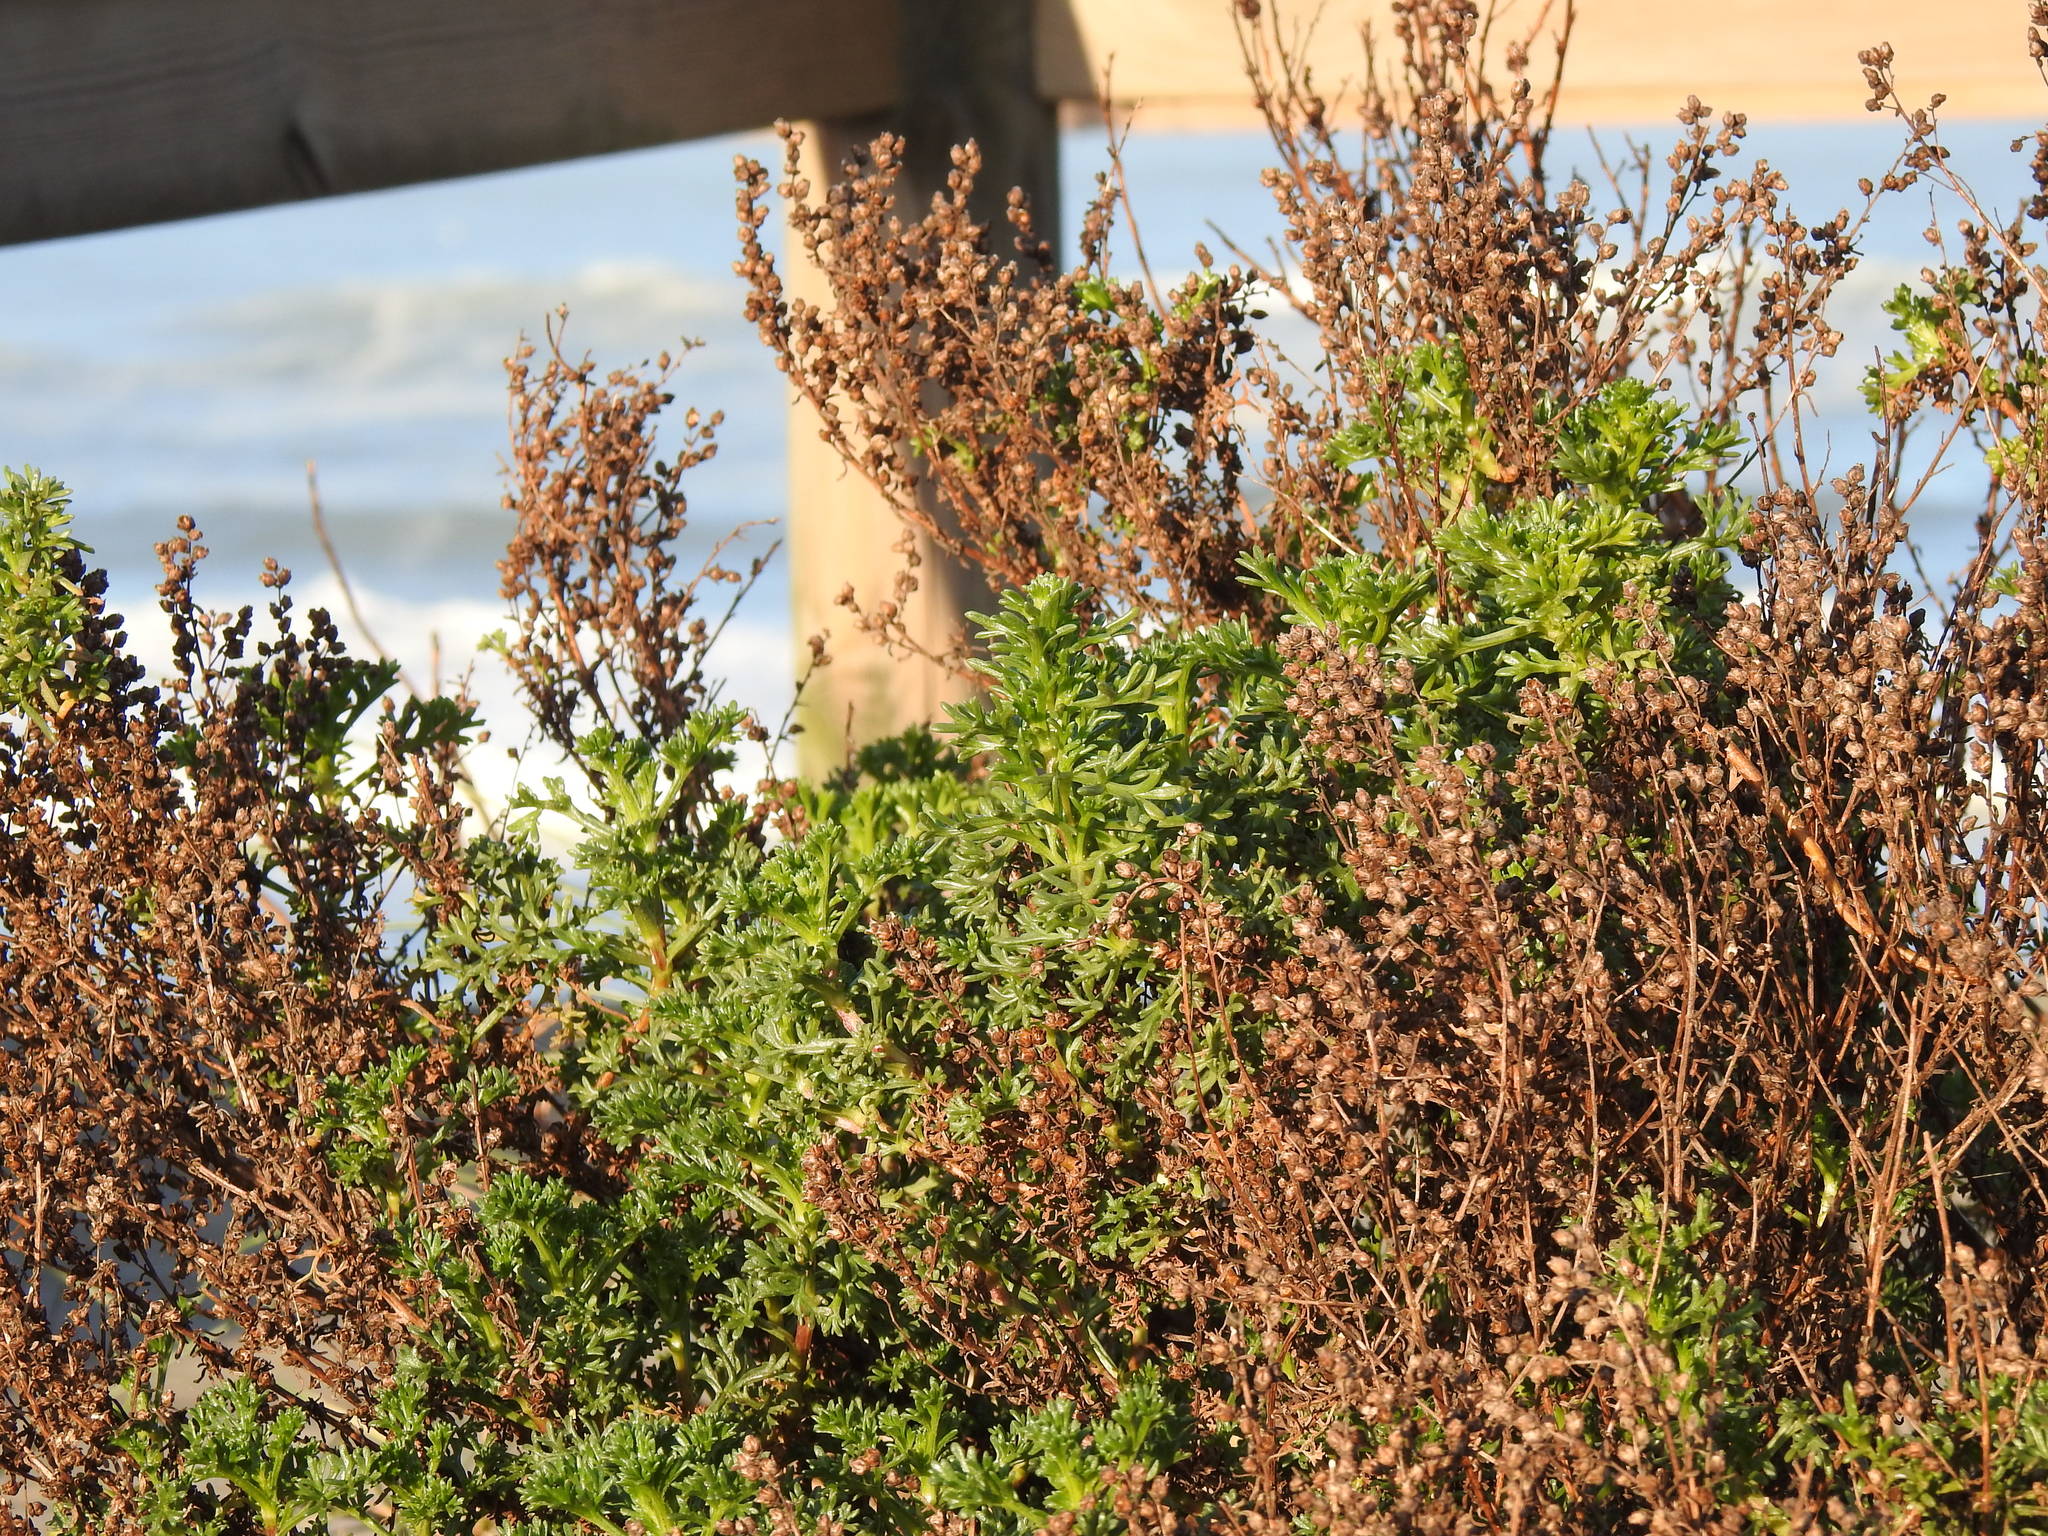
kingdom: Plantae
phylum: Tracheophyta
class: Magnoliopsida
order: Asterales
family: Asteraceae
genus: Artemisia
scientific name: Artemisia crithmifolia
